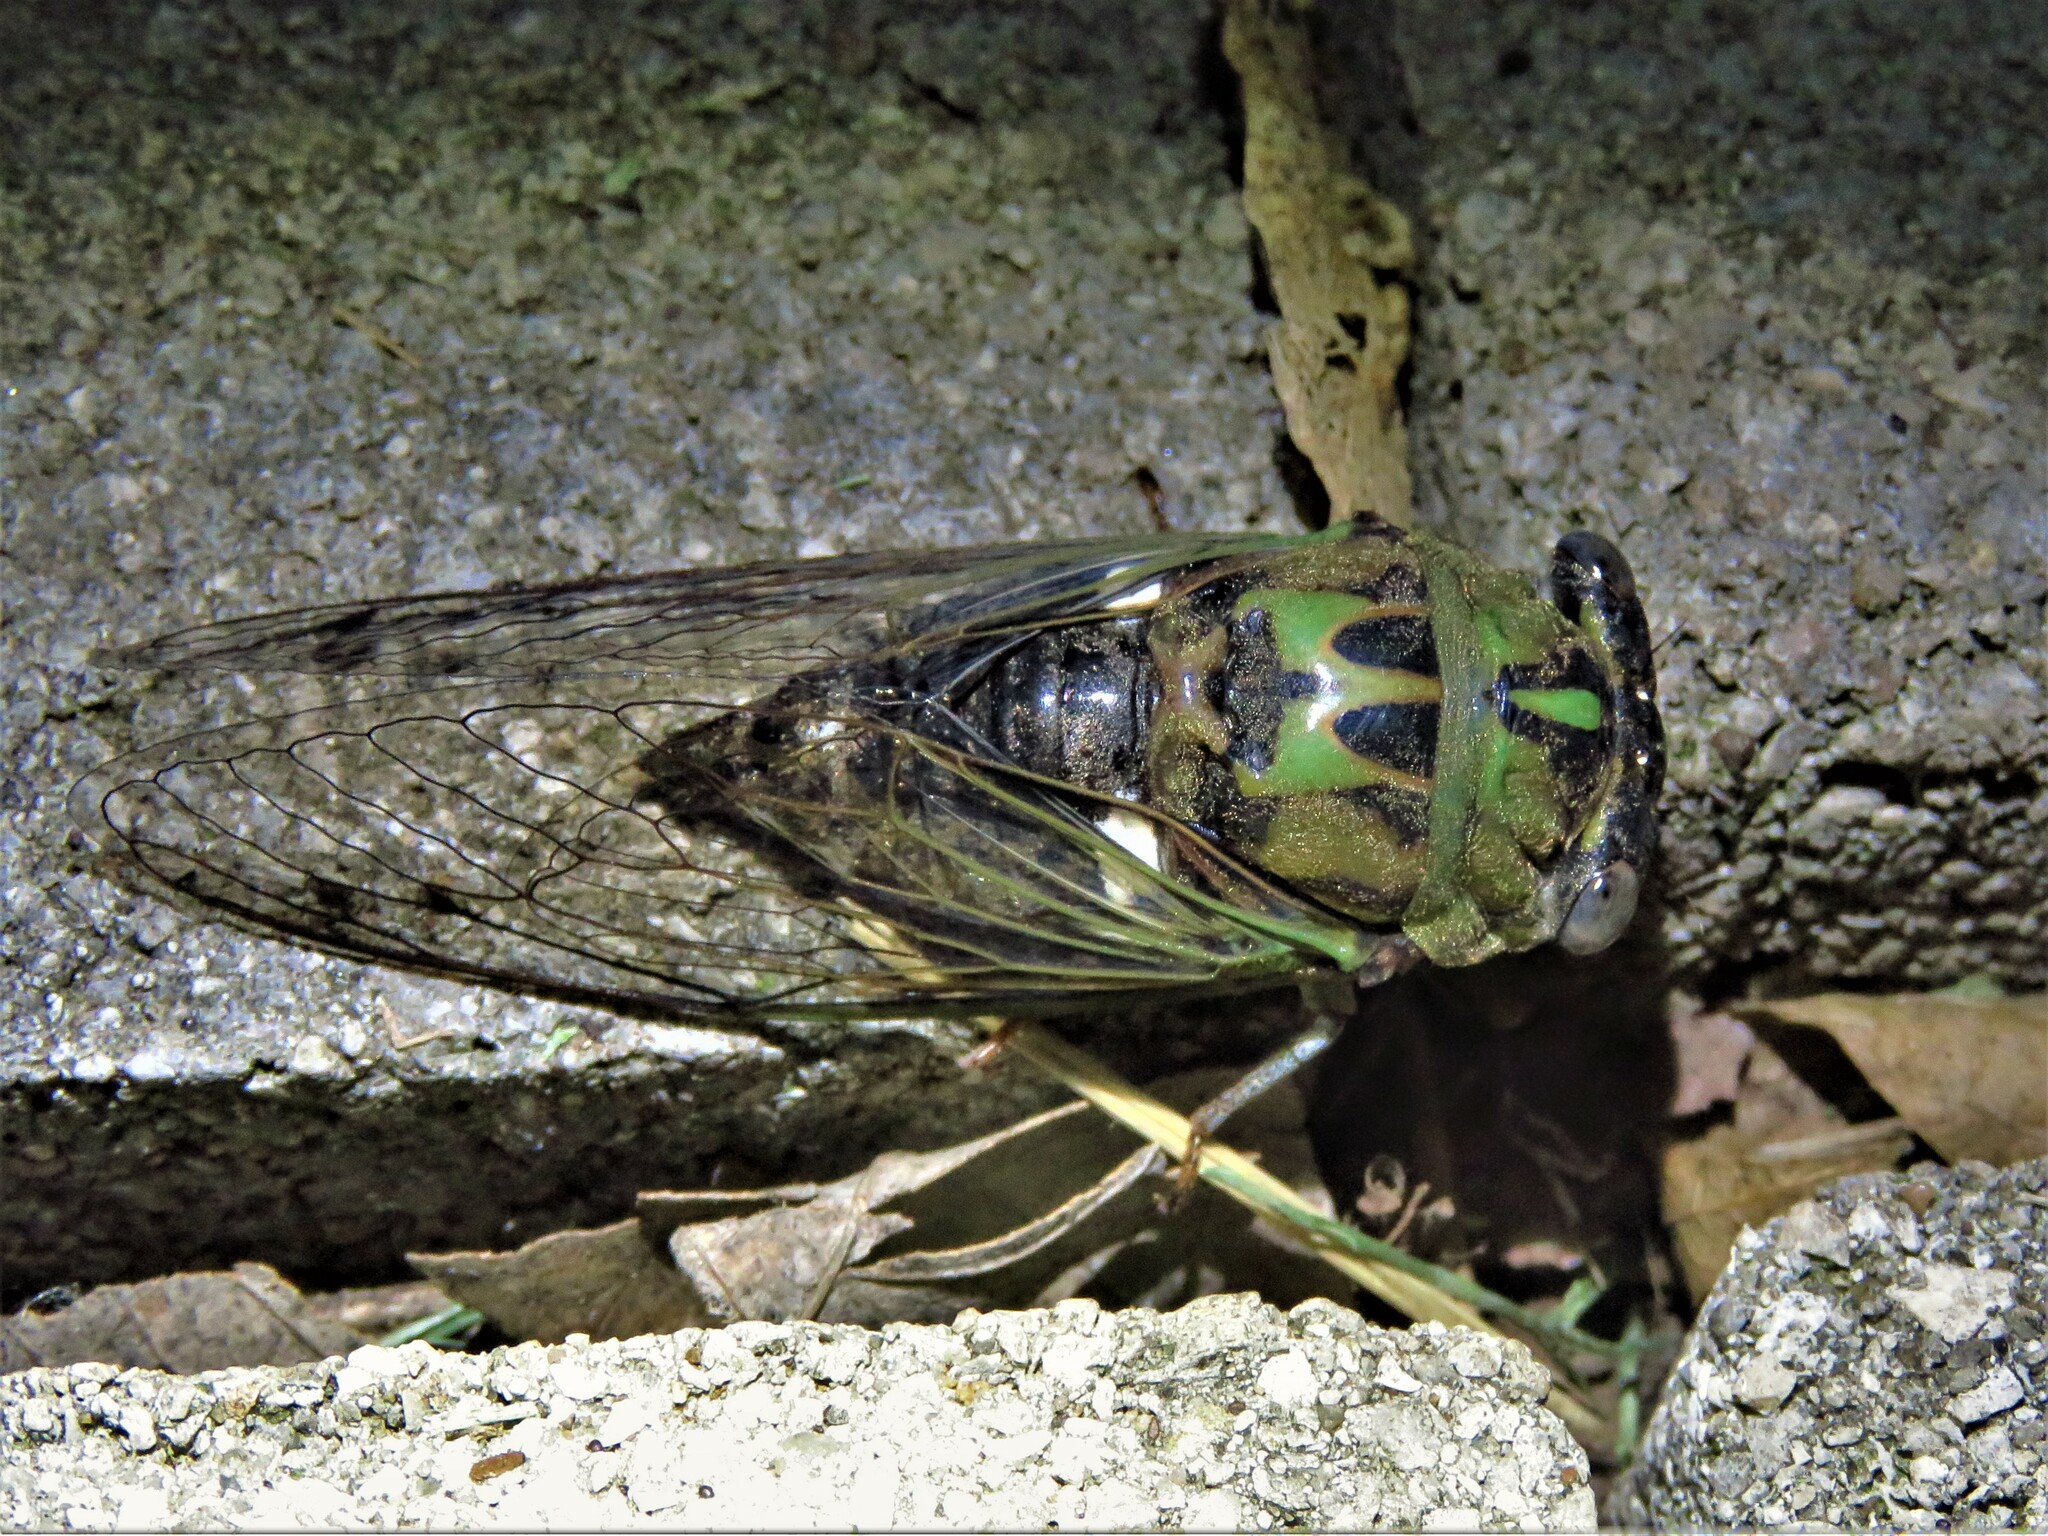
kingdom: Animalia
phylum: Arthropoda
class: Insecta
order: Hemiptera
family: Cicadidae
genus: Neotibicen
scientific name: Neotibicen pruinosus
